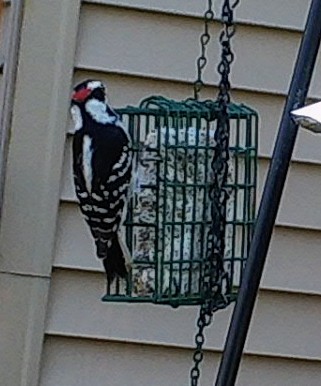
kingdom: Animalia
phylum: Chordata
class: Aves
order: Piciformes
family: Picidae
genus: Dryobates
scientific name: Dryobates pubescens
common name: Downy woodpecker
